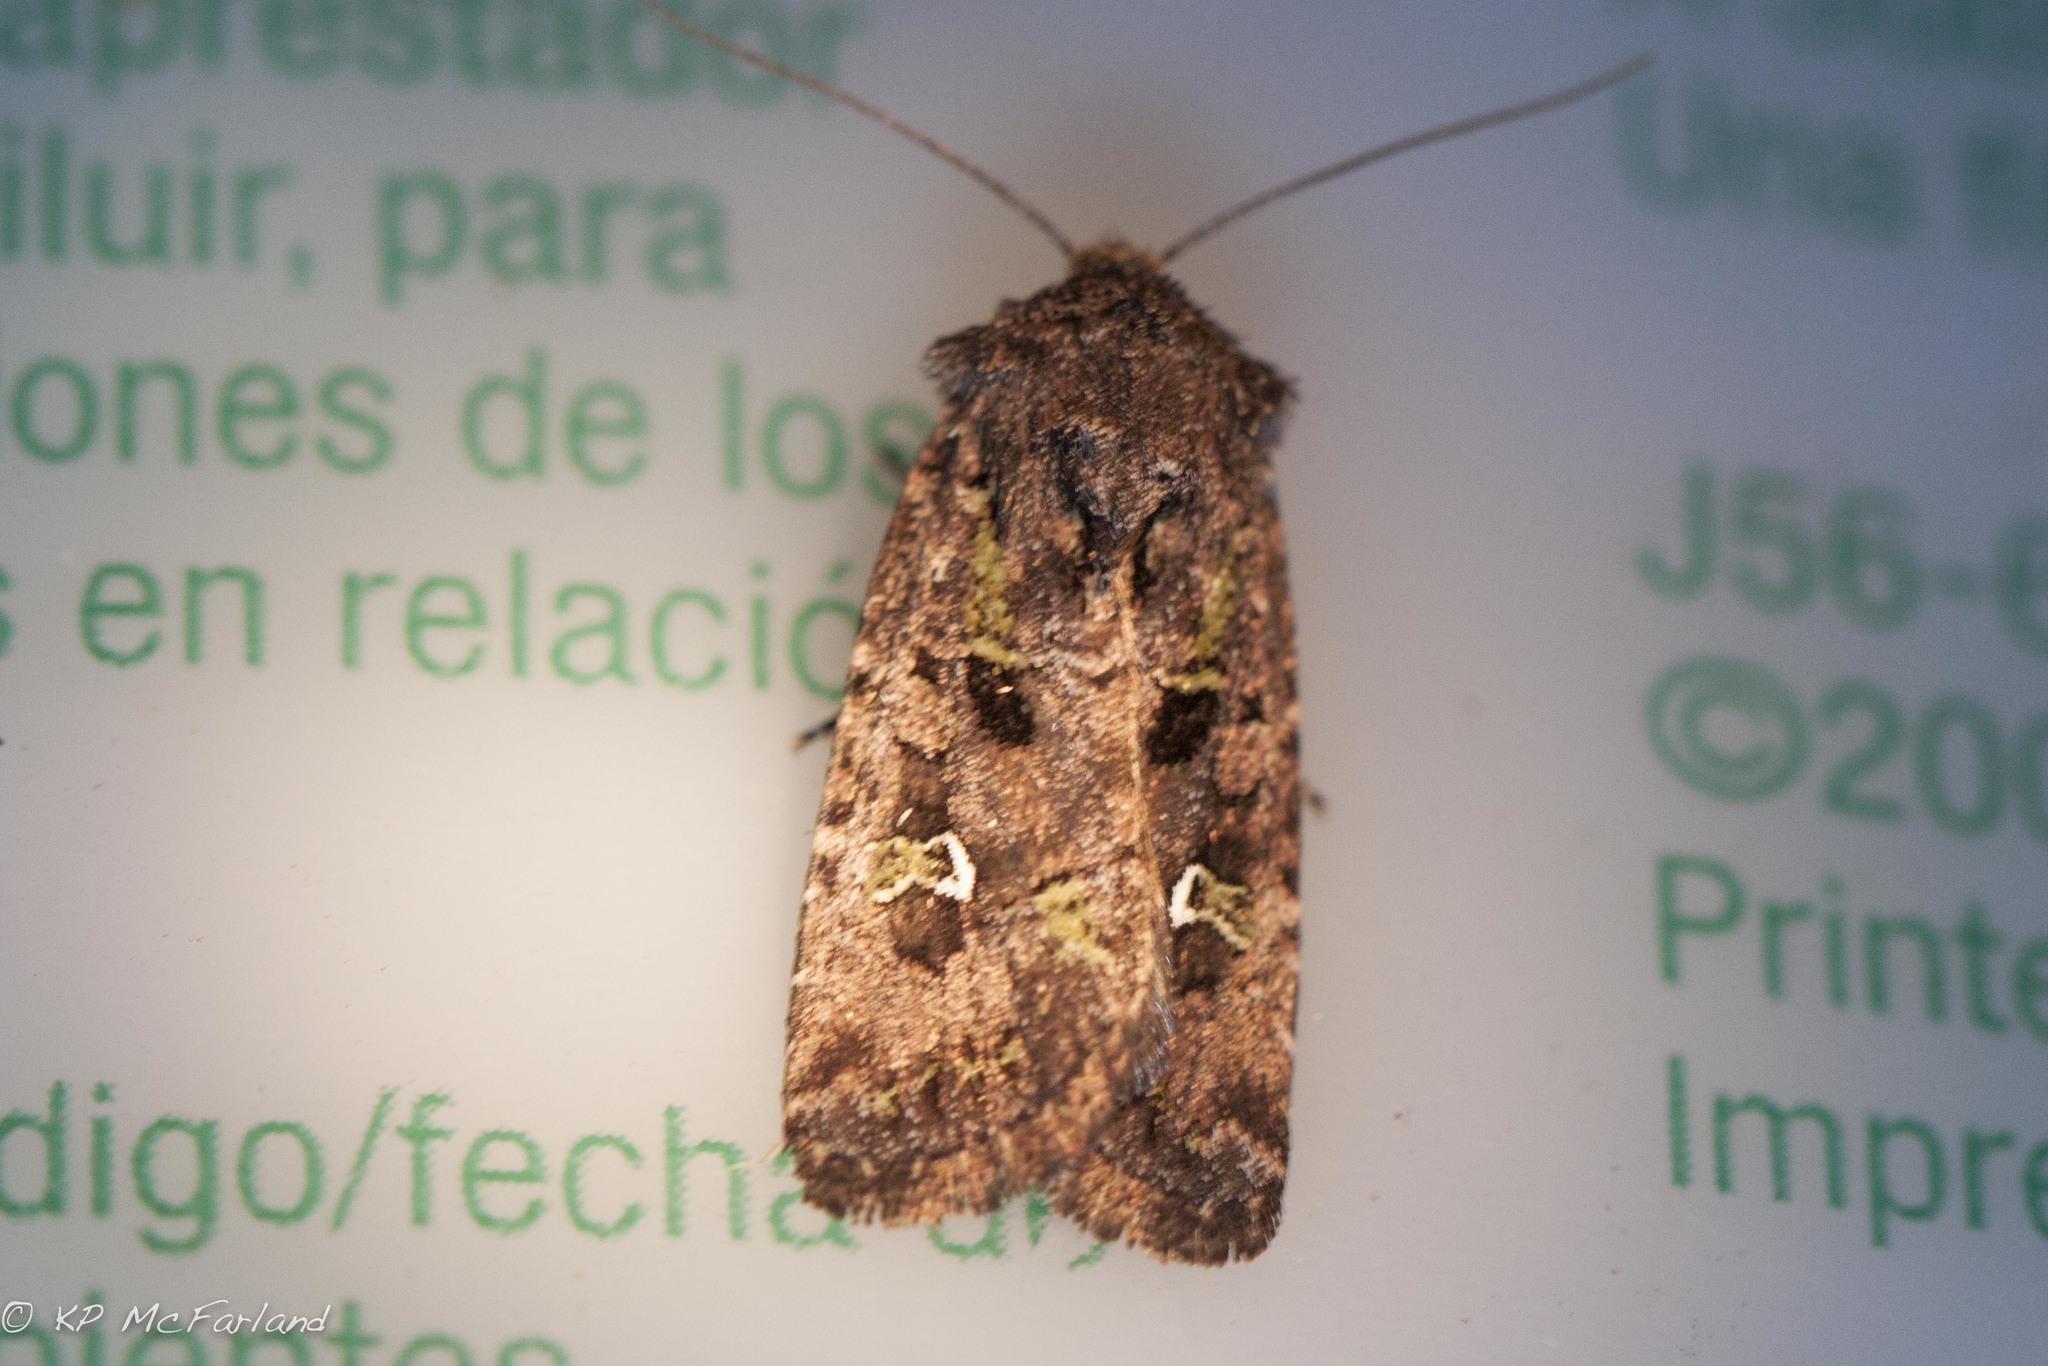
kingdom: Animalia
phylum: Arthropoda
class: Insecta
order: Lepidoptera
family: Noctuidae
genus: Lacinipolia
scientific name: Lacinipolia renigera
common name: Kidney-spotted minor
